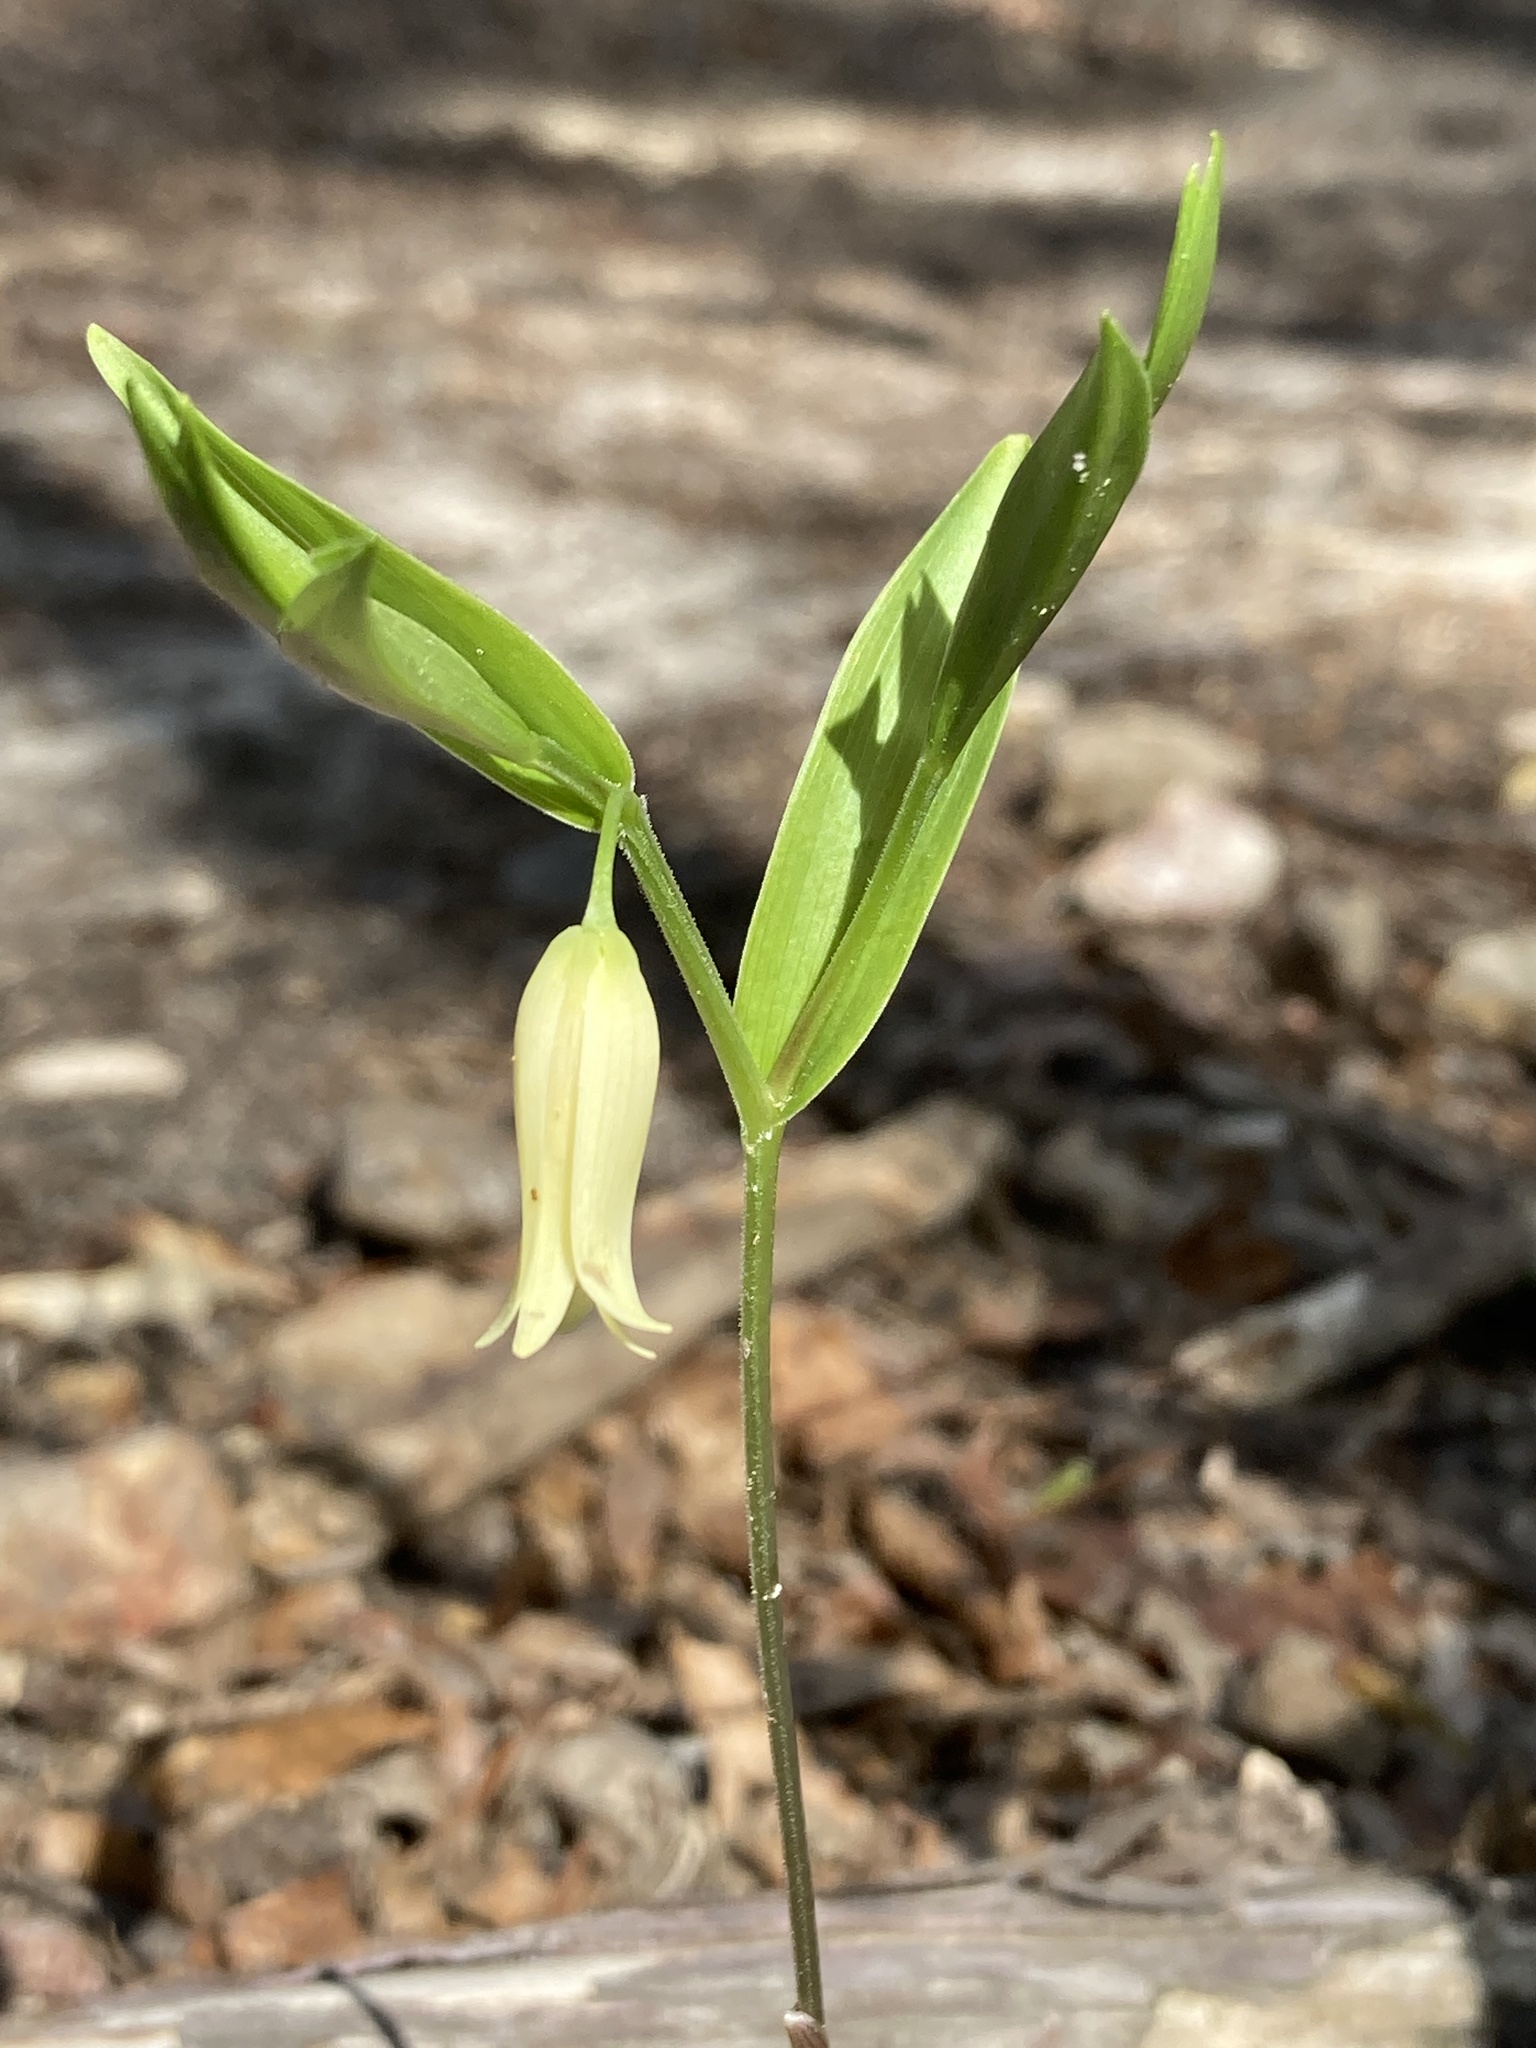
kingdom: Plantae
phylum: Tracheophyta
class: Liliopsida
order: Liliales
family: Colchicaceae
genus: Uvularia
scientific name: Uvularia puberula
